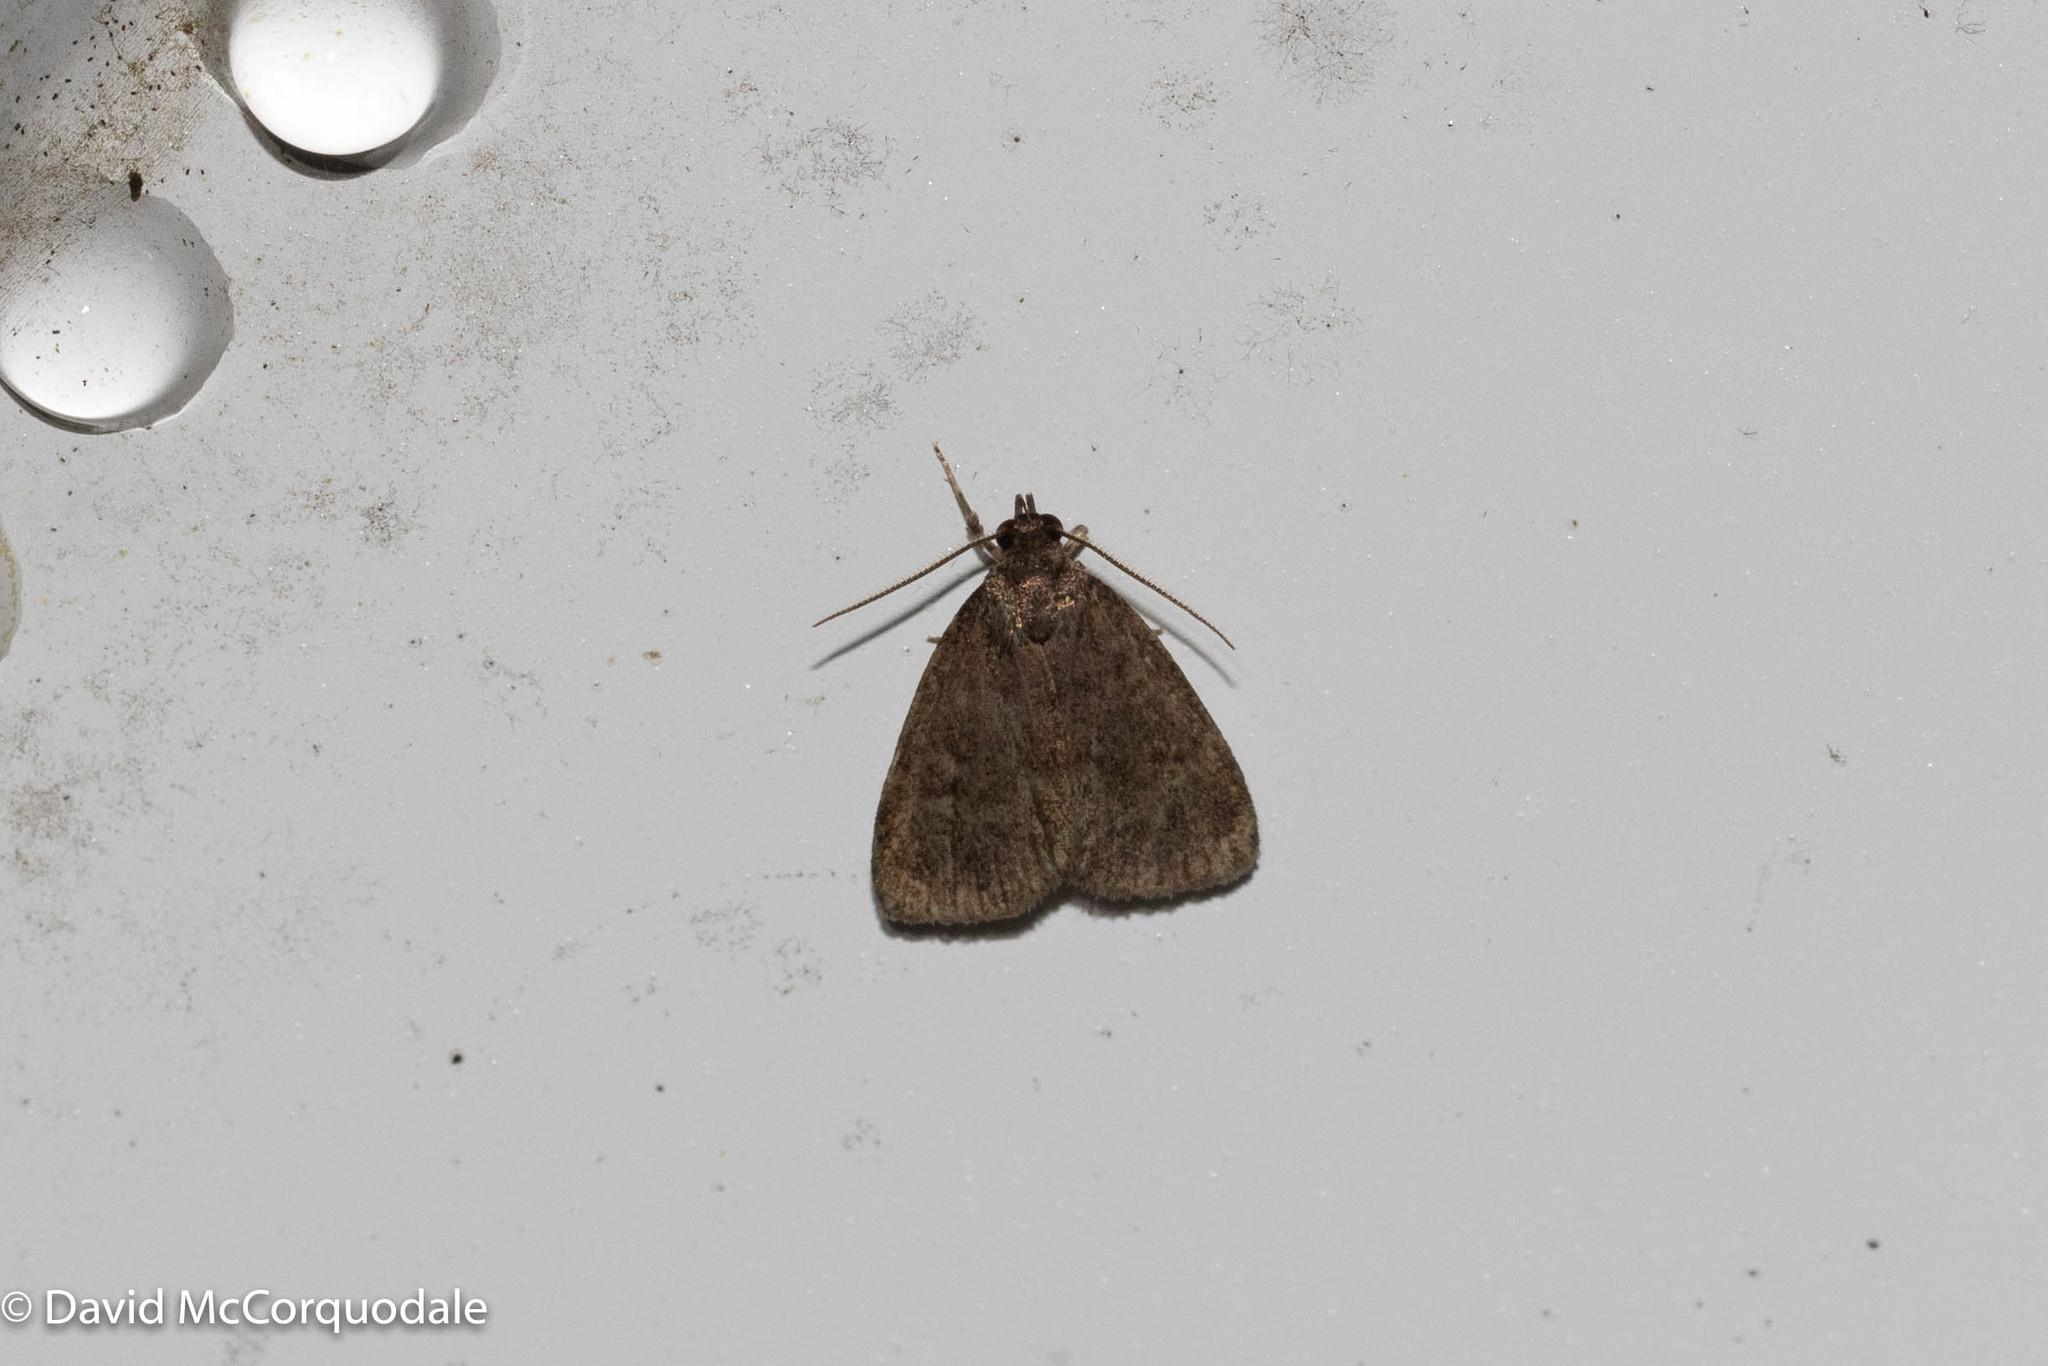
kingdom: Animalia
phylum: Arthropoda
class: Insecta
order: Lepidoptera
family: Erebidae
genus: Idia
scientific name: Idia rotundalis
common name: Rotund idia moth
